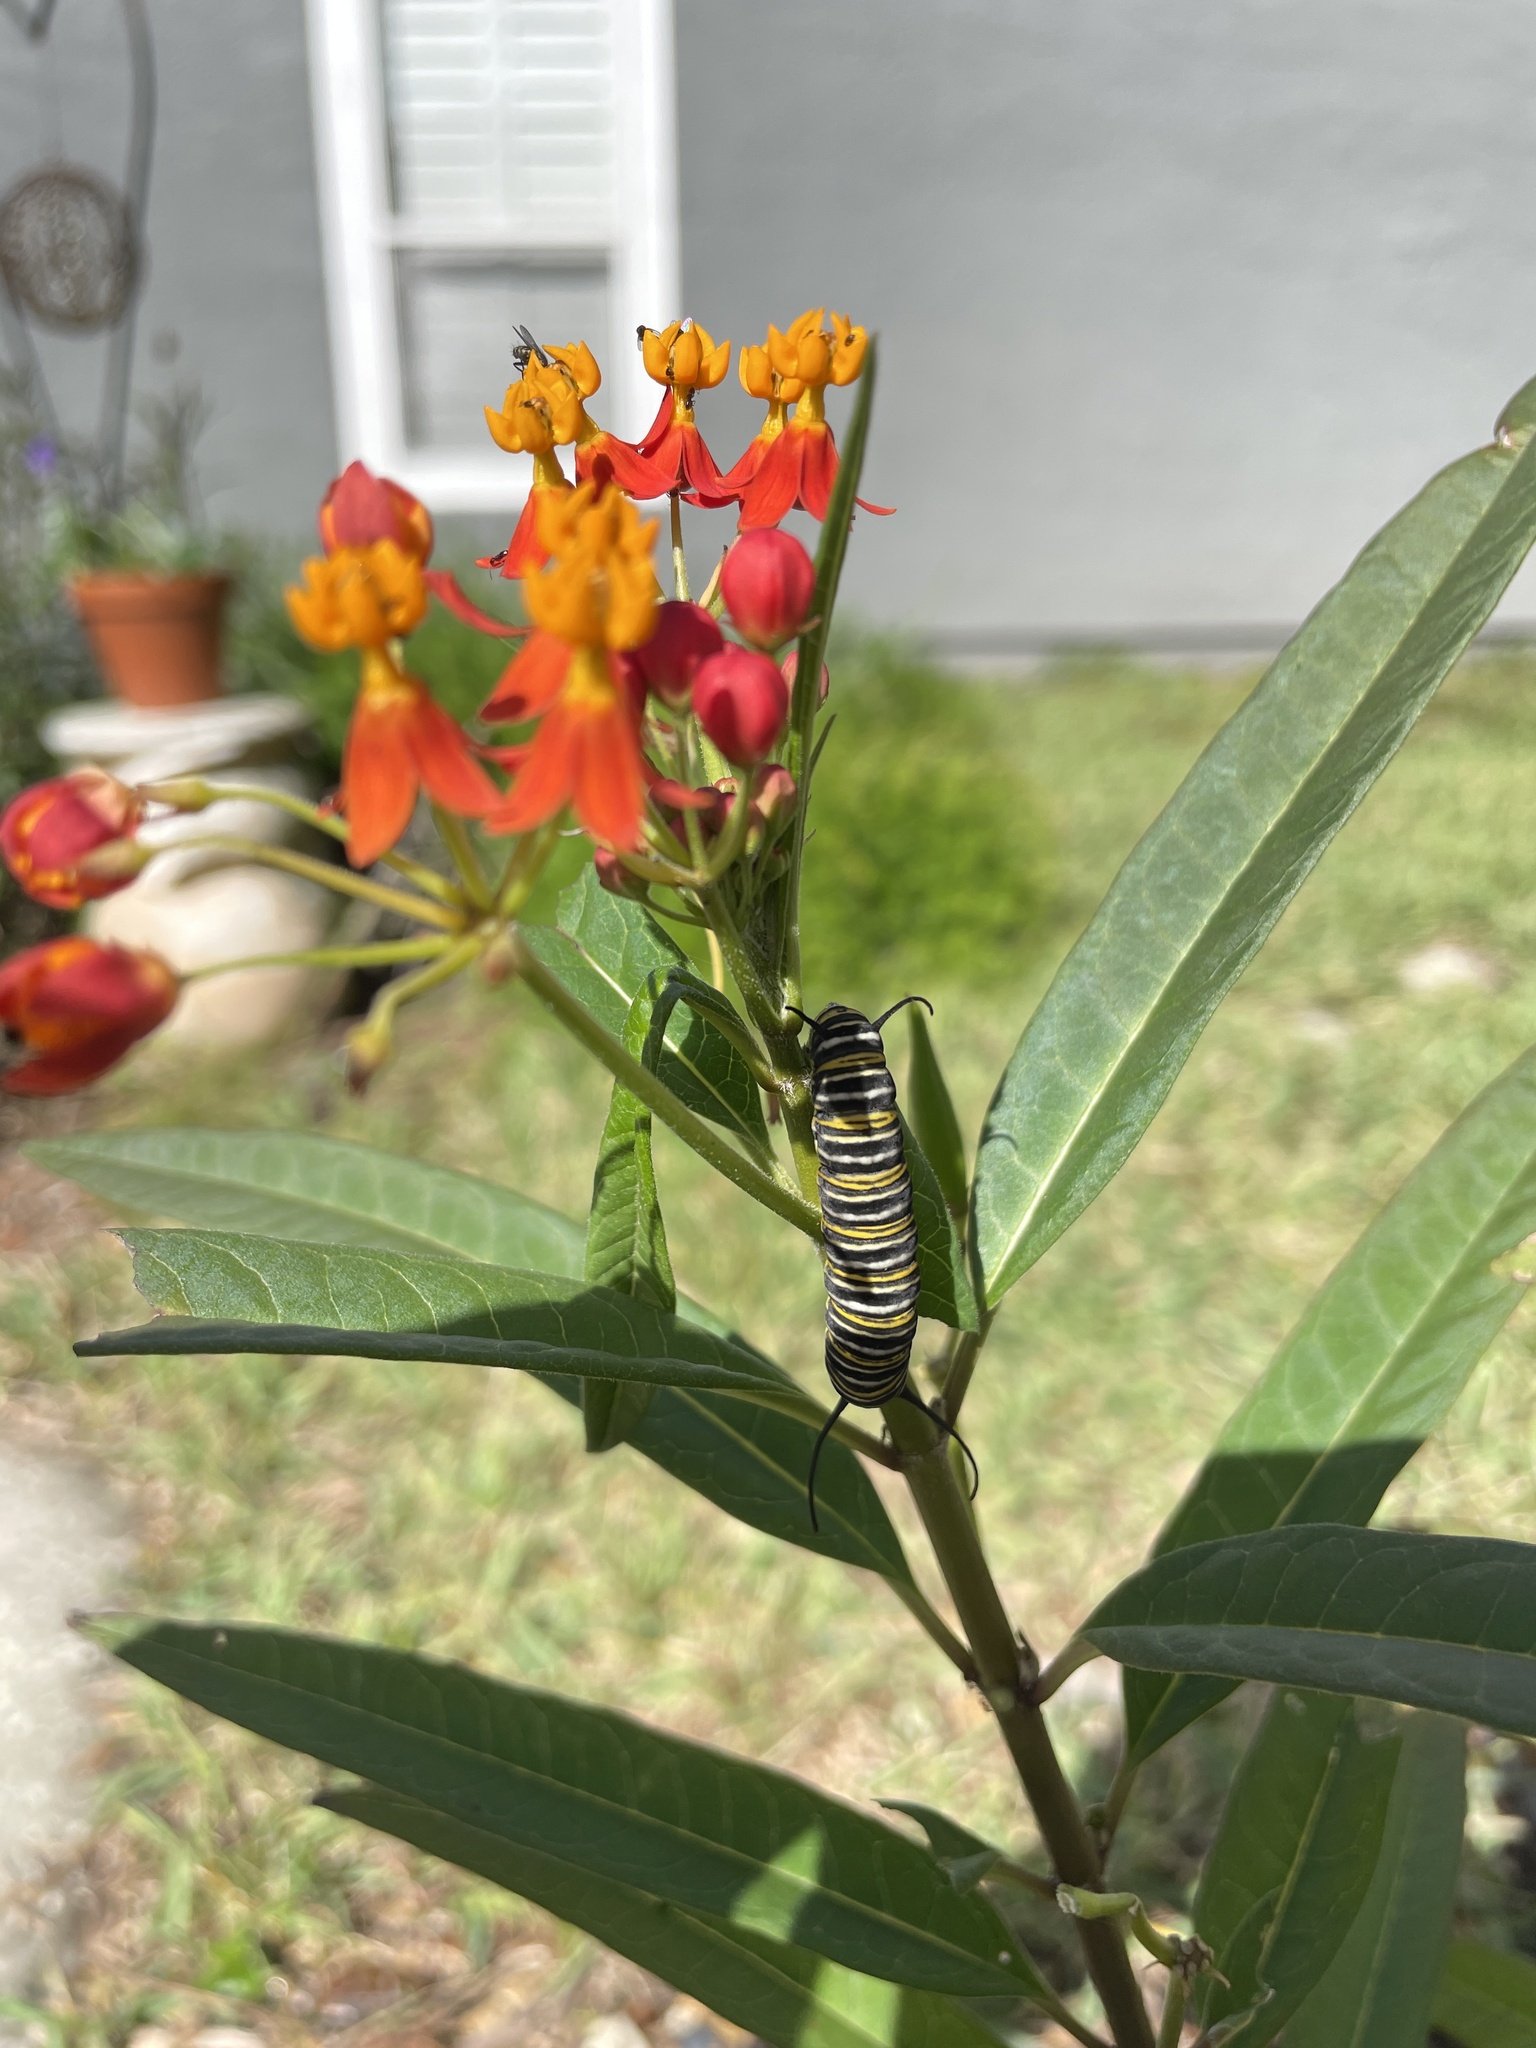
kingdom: Animalia
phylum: Arthropoda
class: Insecta
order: Lepidoptera
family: Nymphalidae
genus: Danaus
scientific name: Danaus plexippus
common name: Monarch
